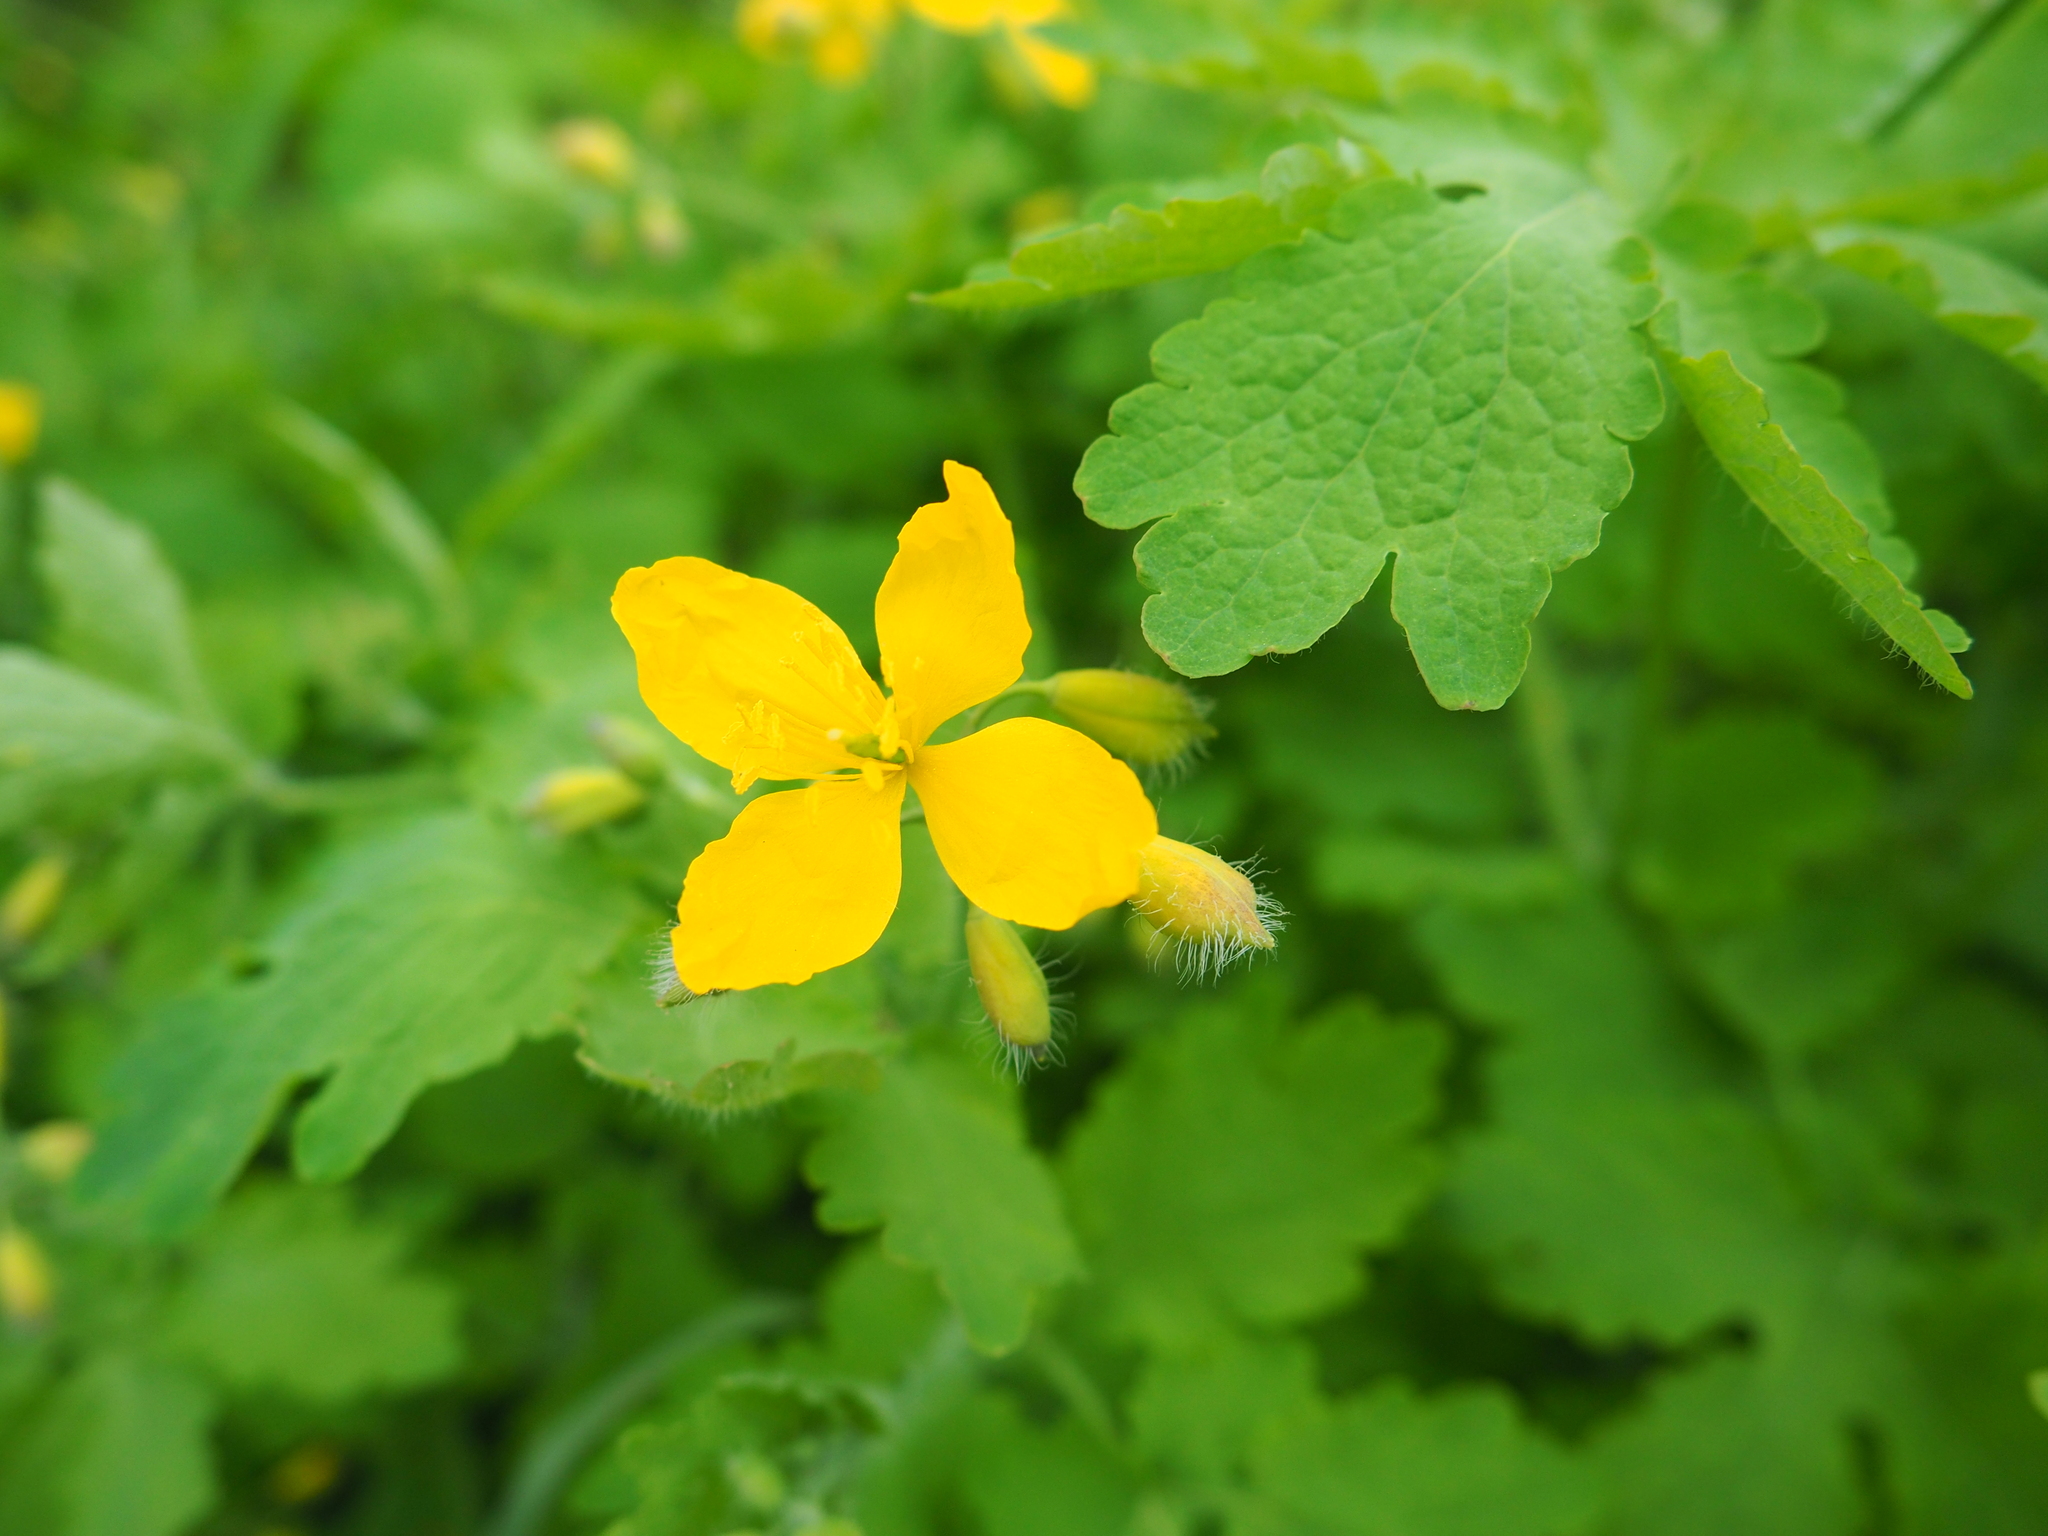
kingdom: Plantae
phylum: Tracheophyta
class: Magnoliopsida
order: Ranunculales
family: Papaveraceae
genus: Chelidonium
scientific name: Chelidonium majus
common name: Greater celandine
